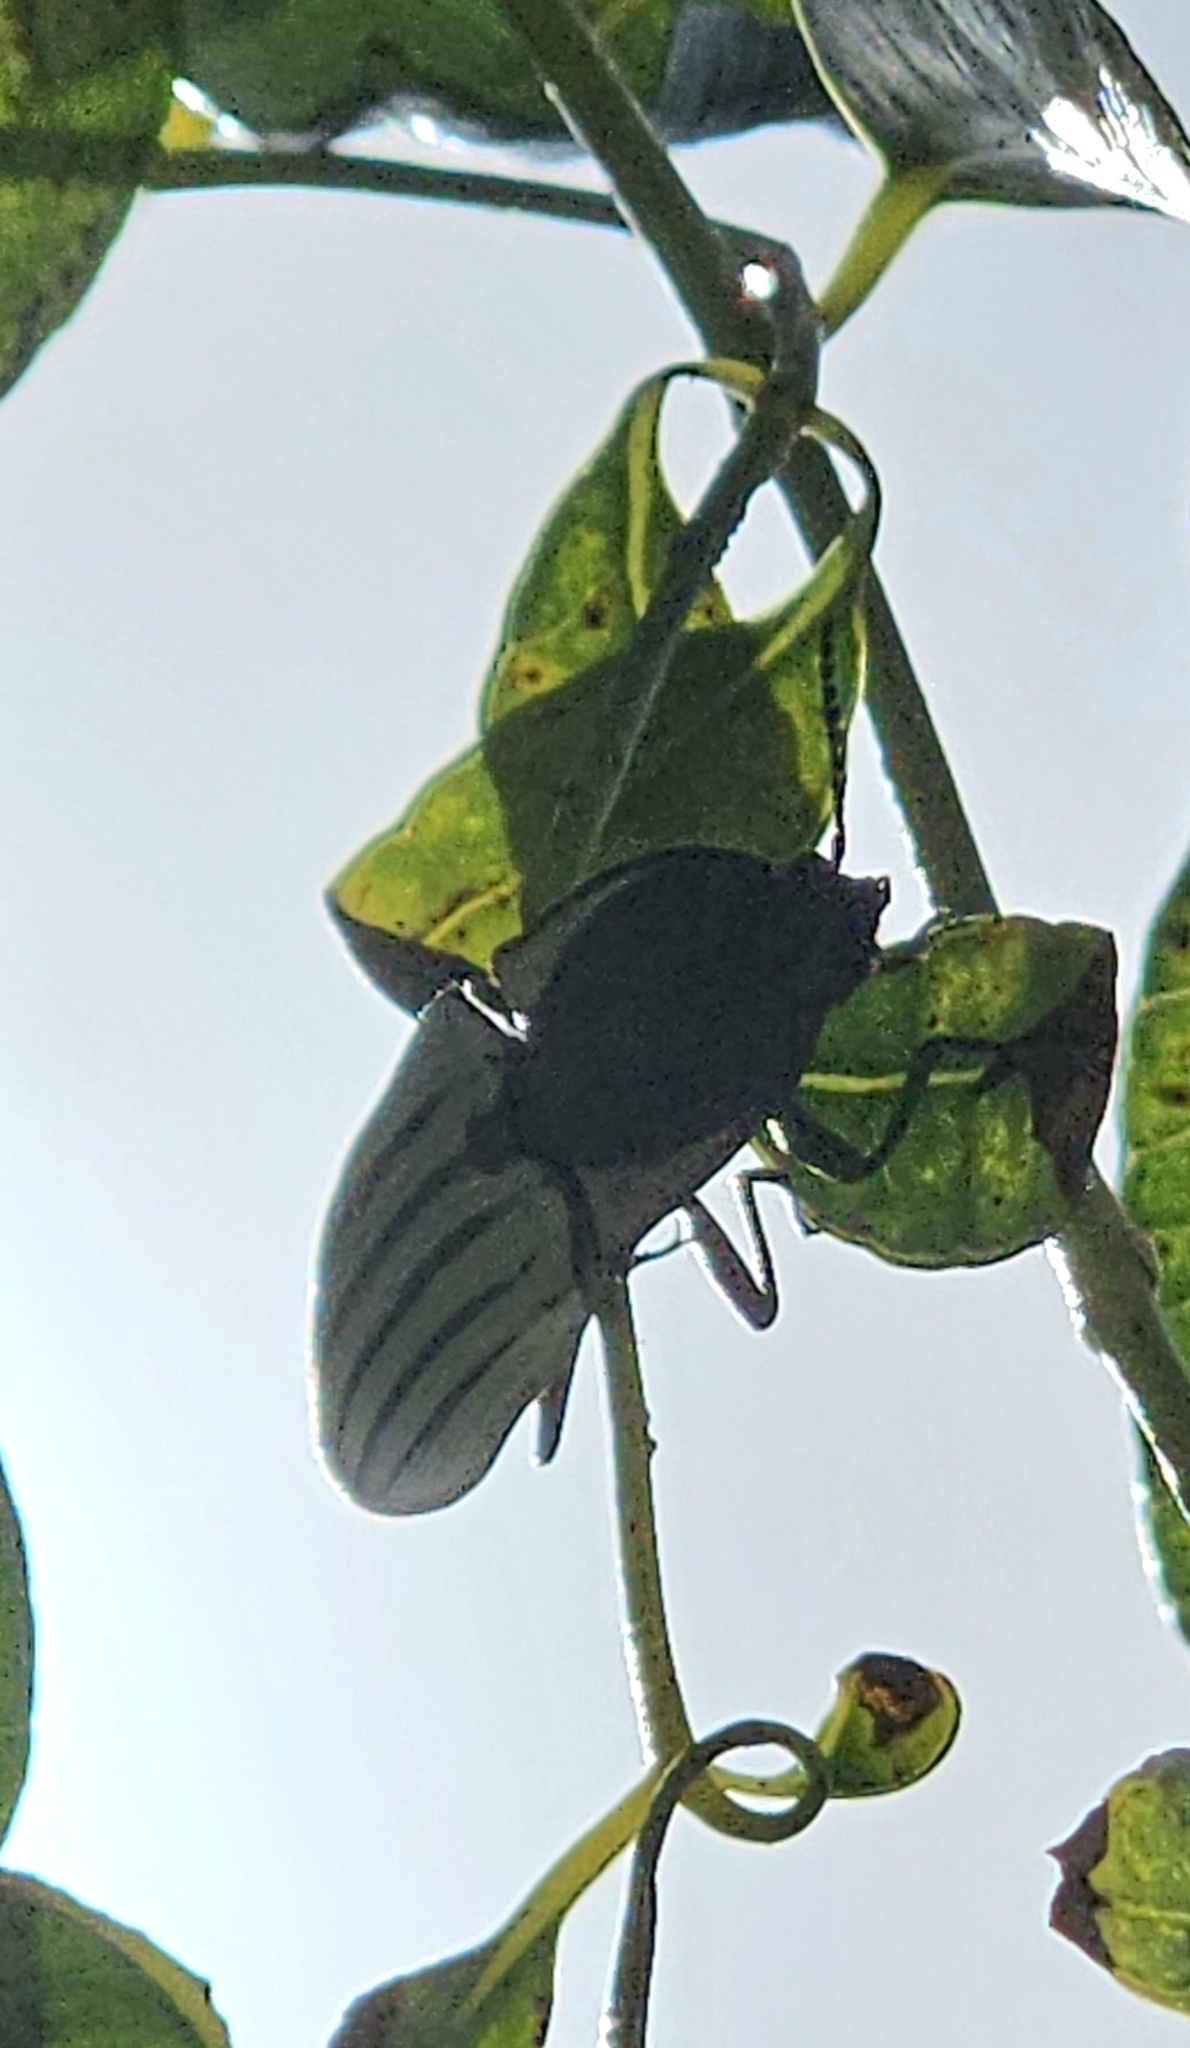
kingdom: Animalia
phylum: Arthropoda
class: Insecta
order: Coleoptera
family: Elateridae
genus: Chalcolepidius
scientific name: Chalcolepidius validus
